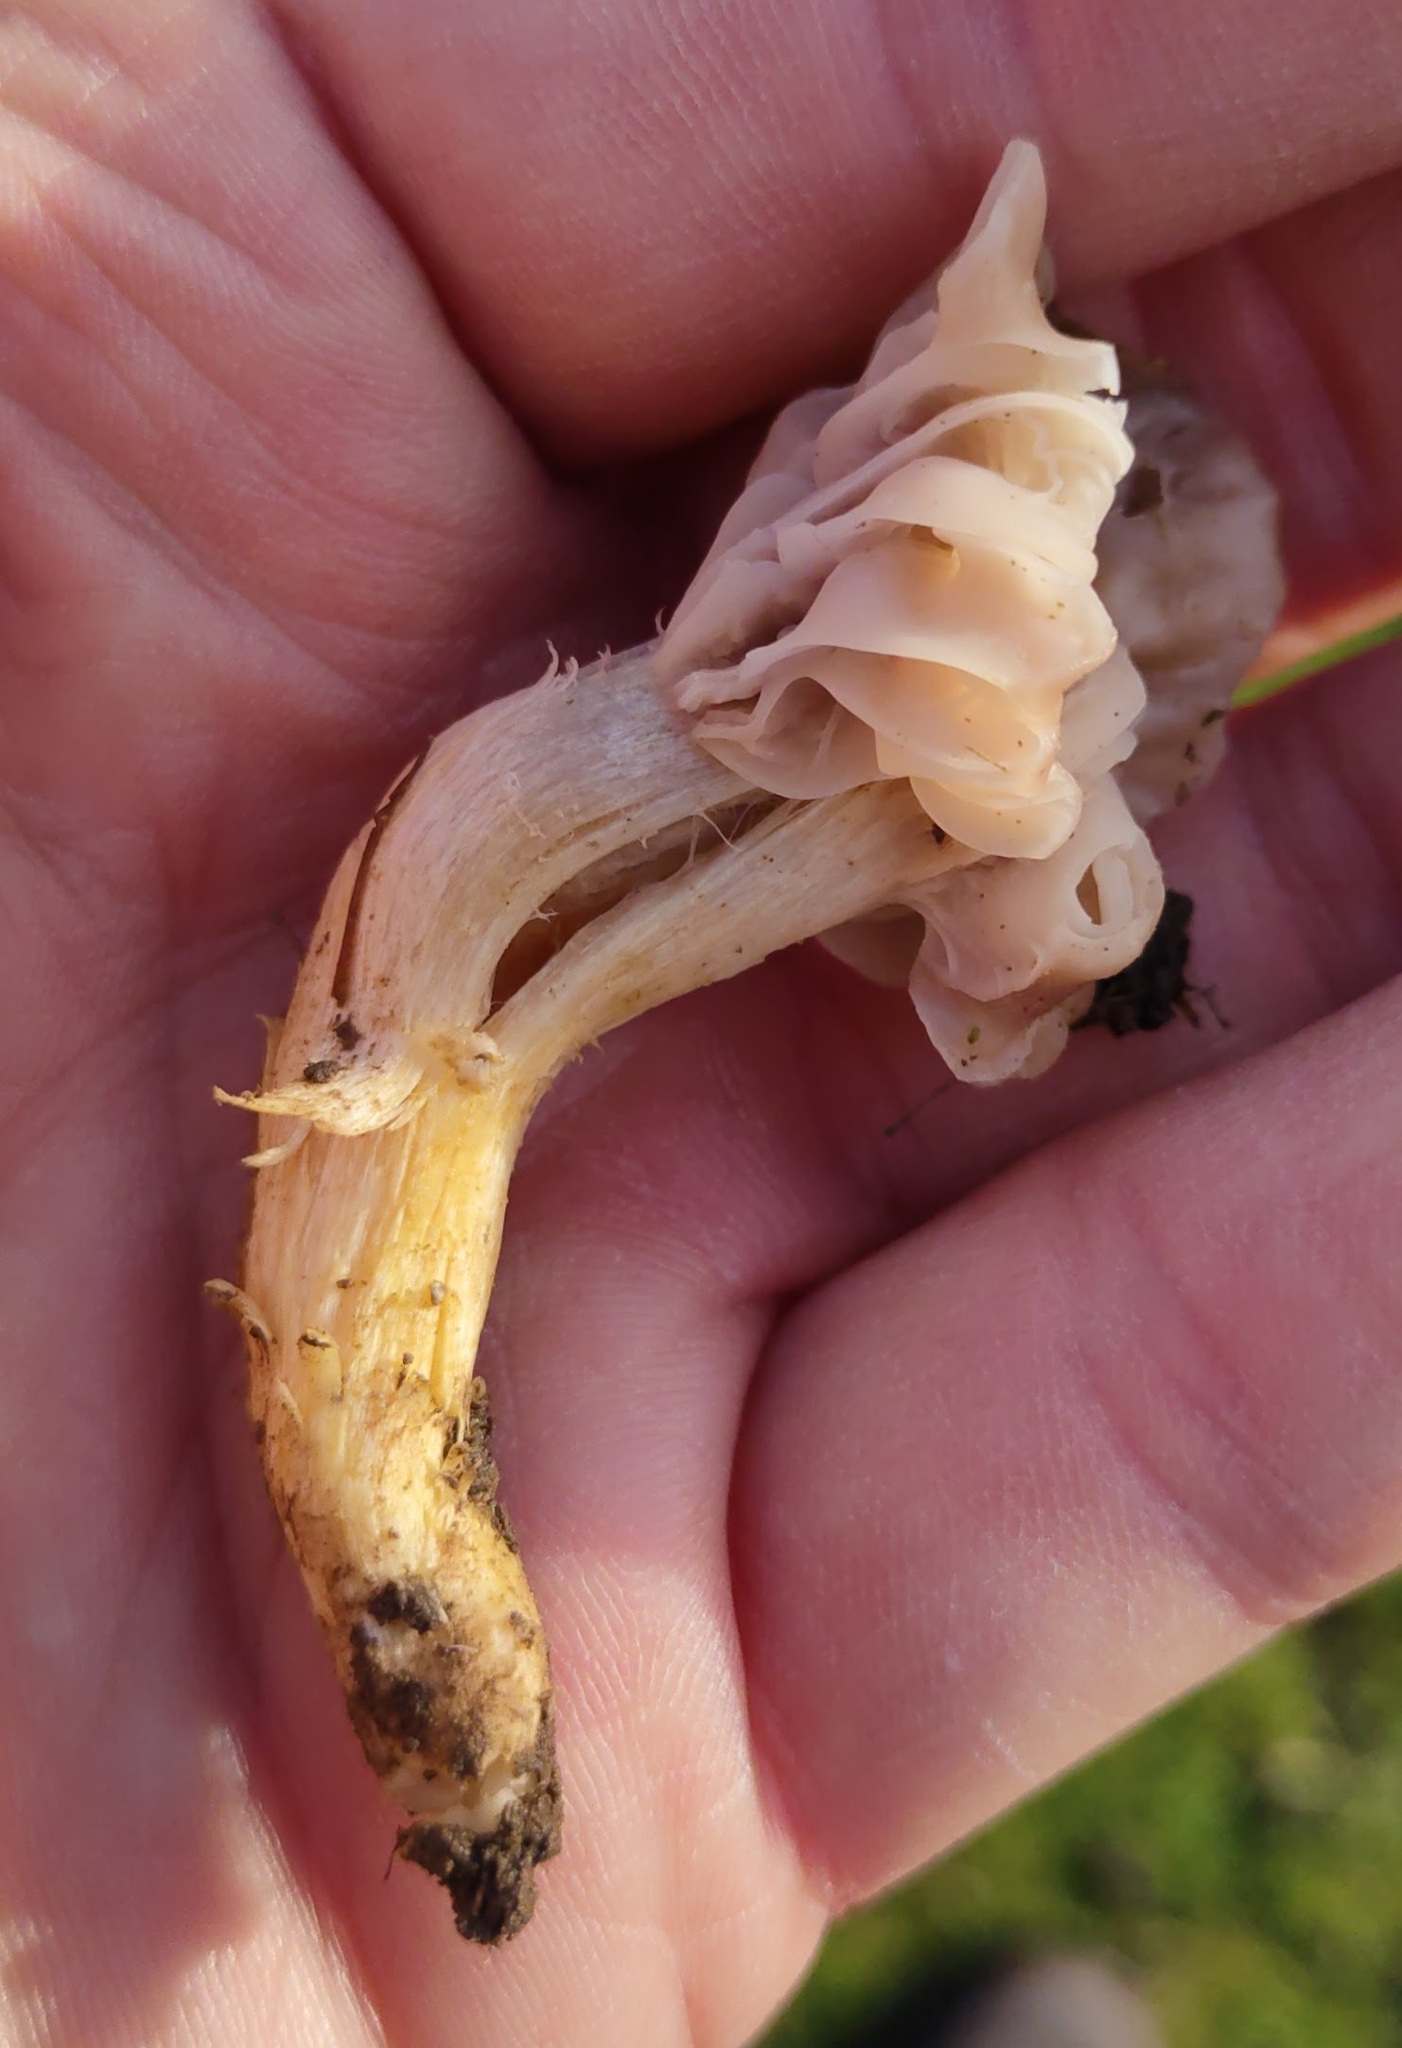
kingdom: Fungi
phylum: Basidiomycota
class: Agaricomycetes
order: Agaricales
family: Hygrophoraceae
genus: Cuphophyllus
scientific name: Cuphophyllus flavipes
